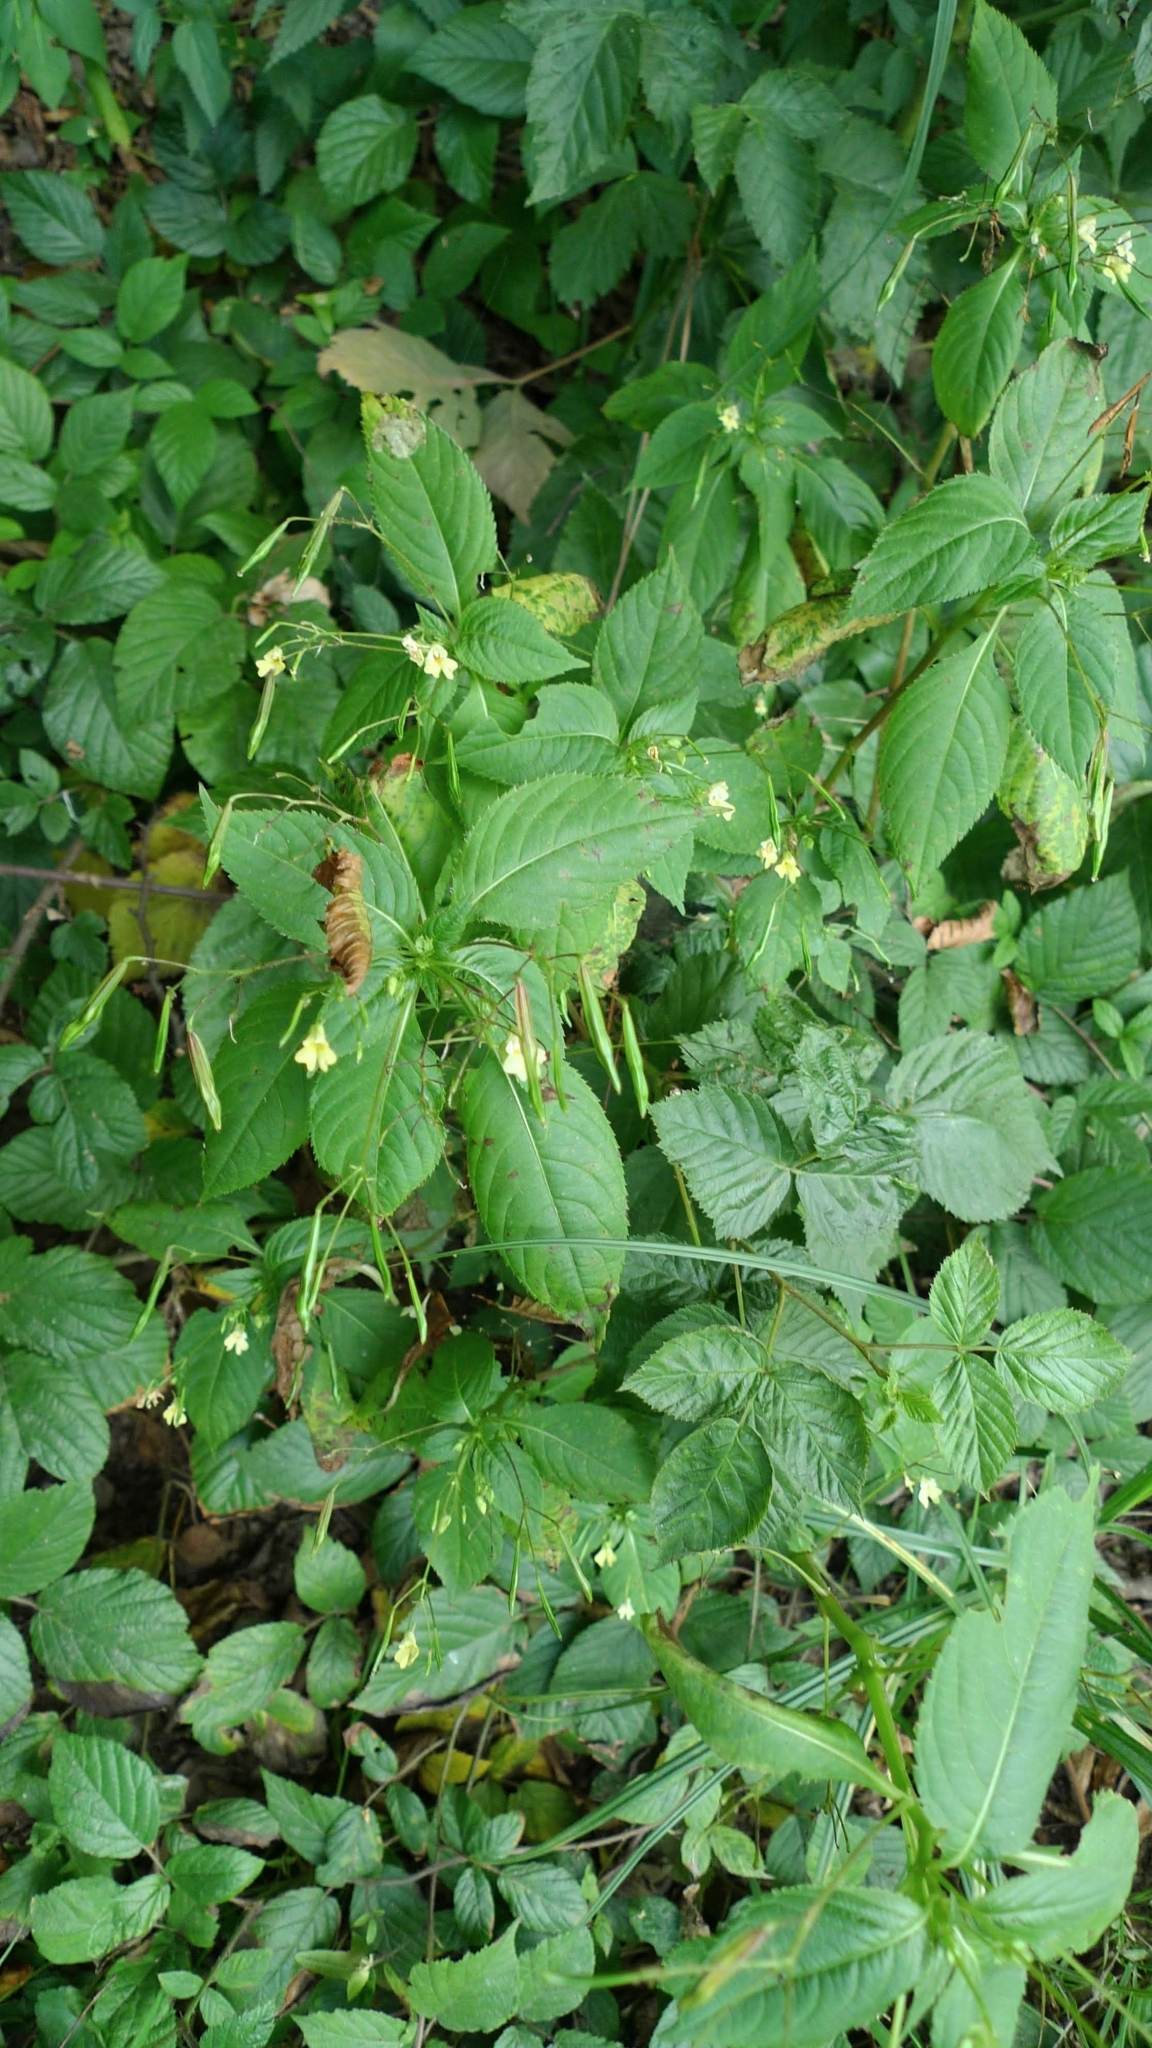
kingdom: Plantae
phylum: Tracheophyta
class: Magnoliopsida
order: Ericales
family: Balsaminaceae
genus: Impatiens
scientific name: Impatiens parviflora
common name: Small balsam
